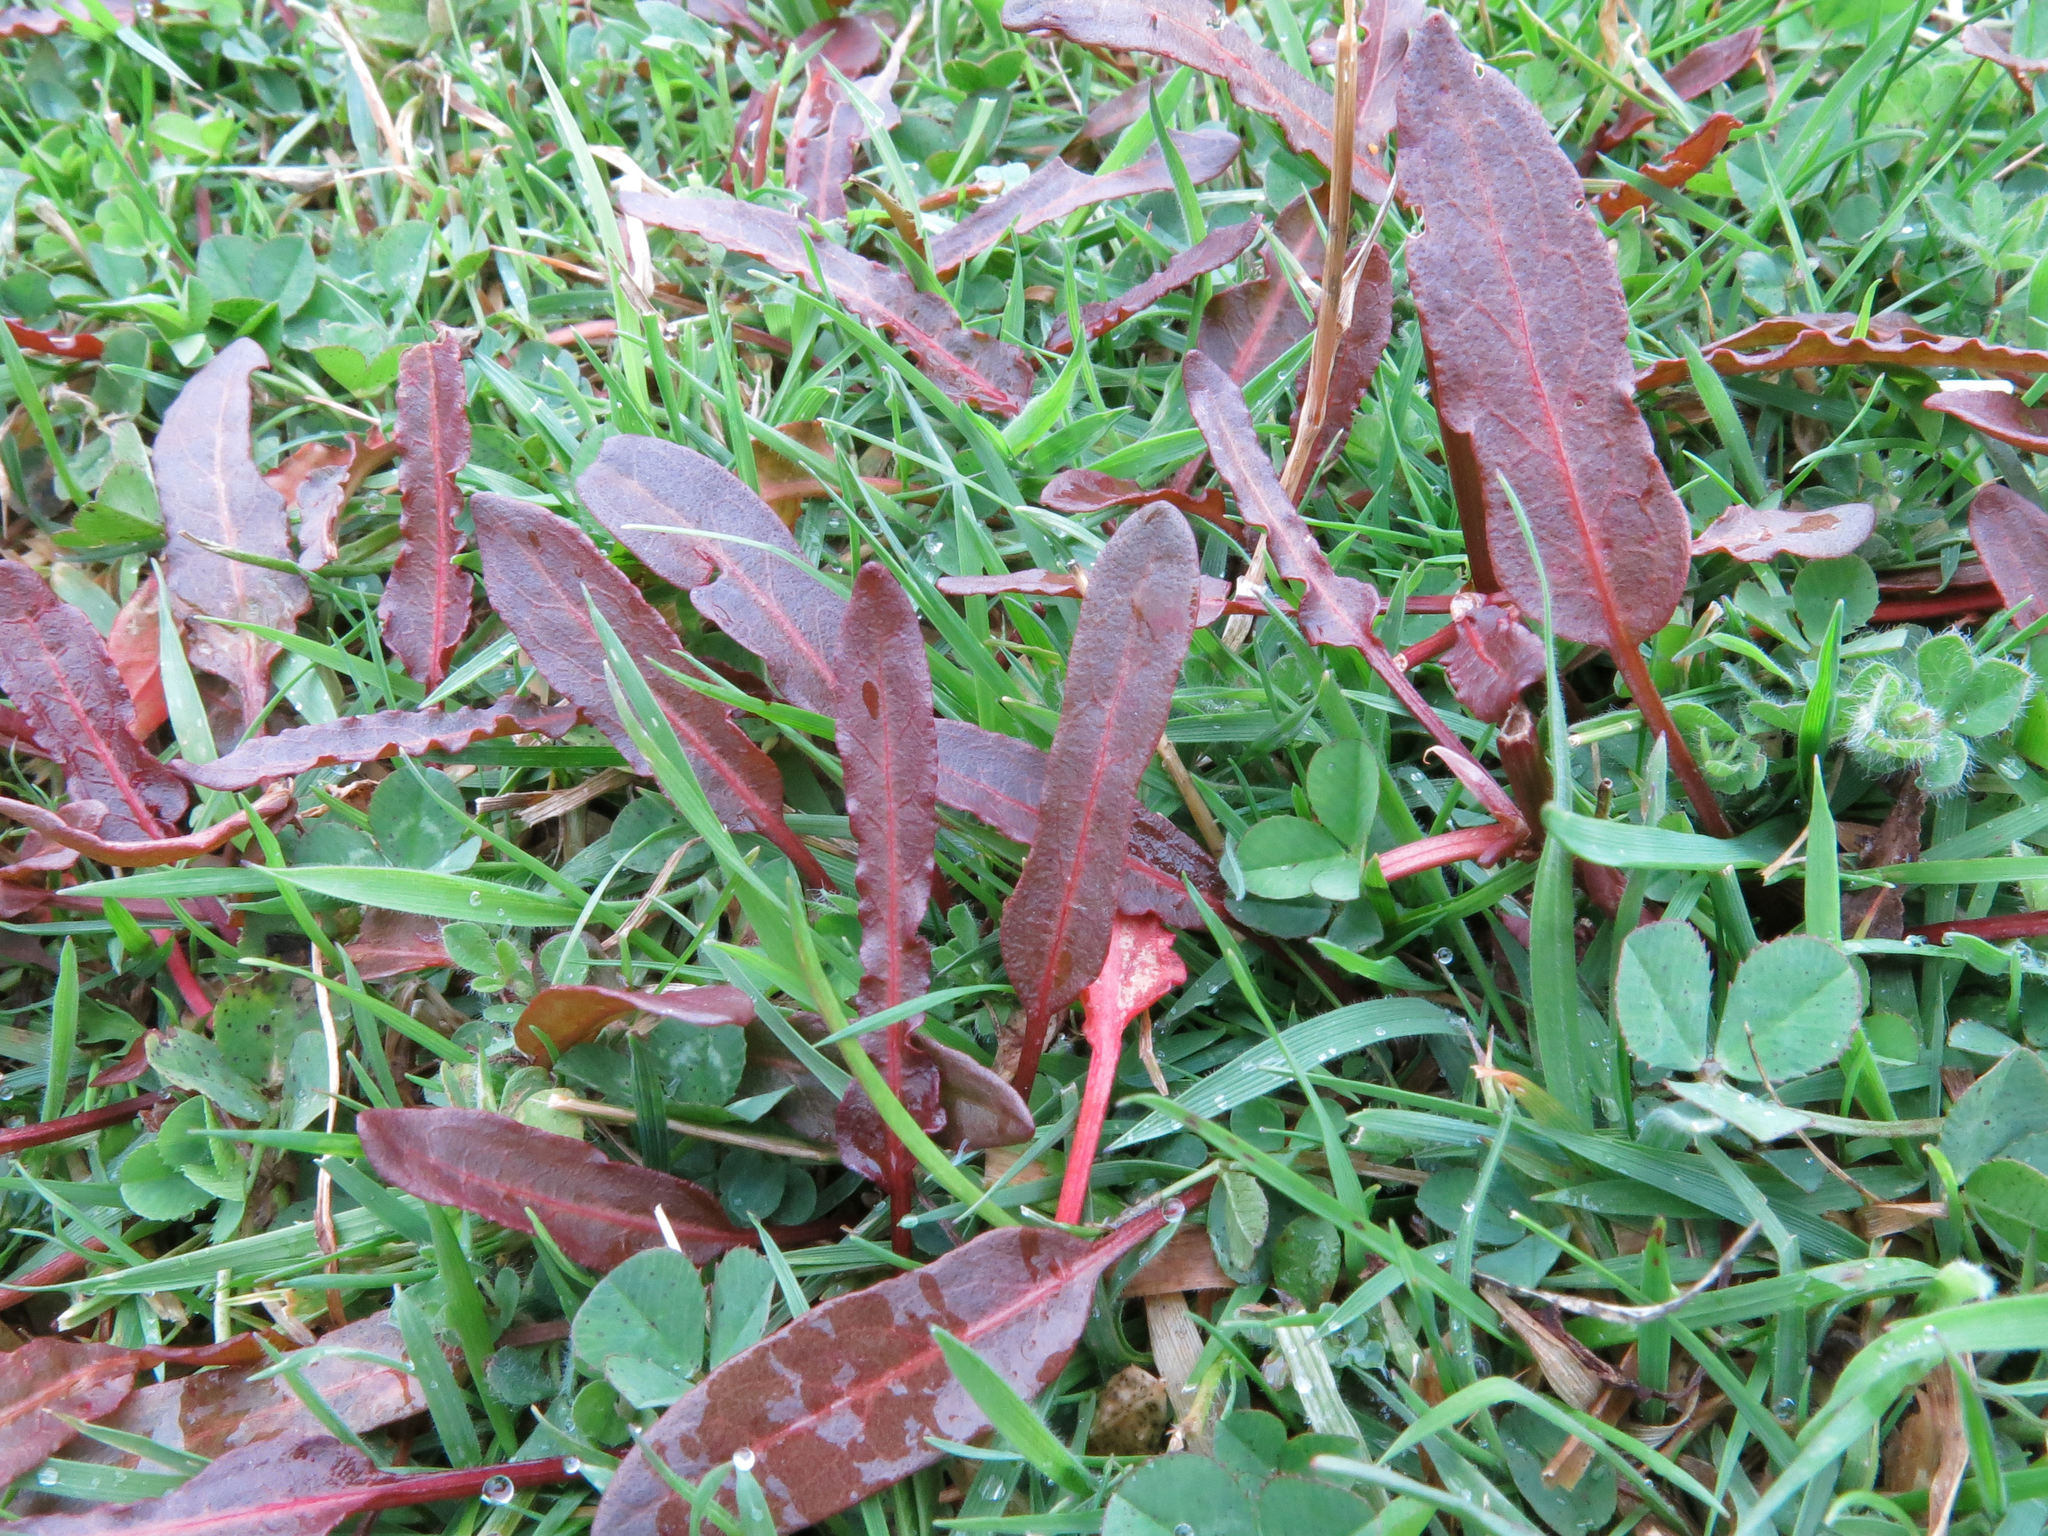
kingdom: Plantae
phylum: Tracheophyta
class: Magnoliopsida
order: Caryophyllales
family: Polygonaceae
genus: Rumex
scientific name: Rumex flexuosus
